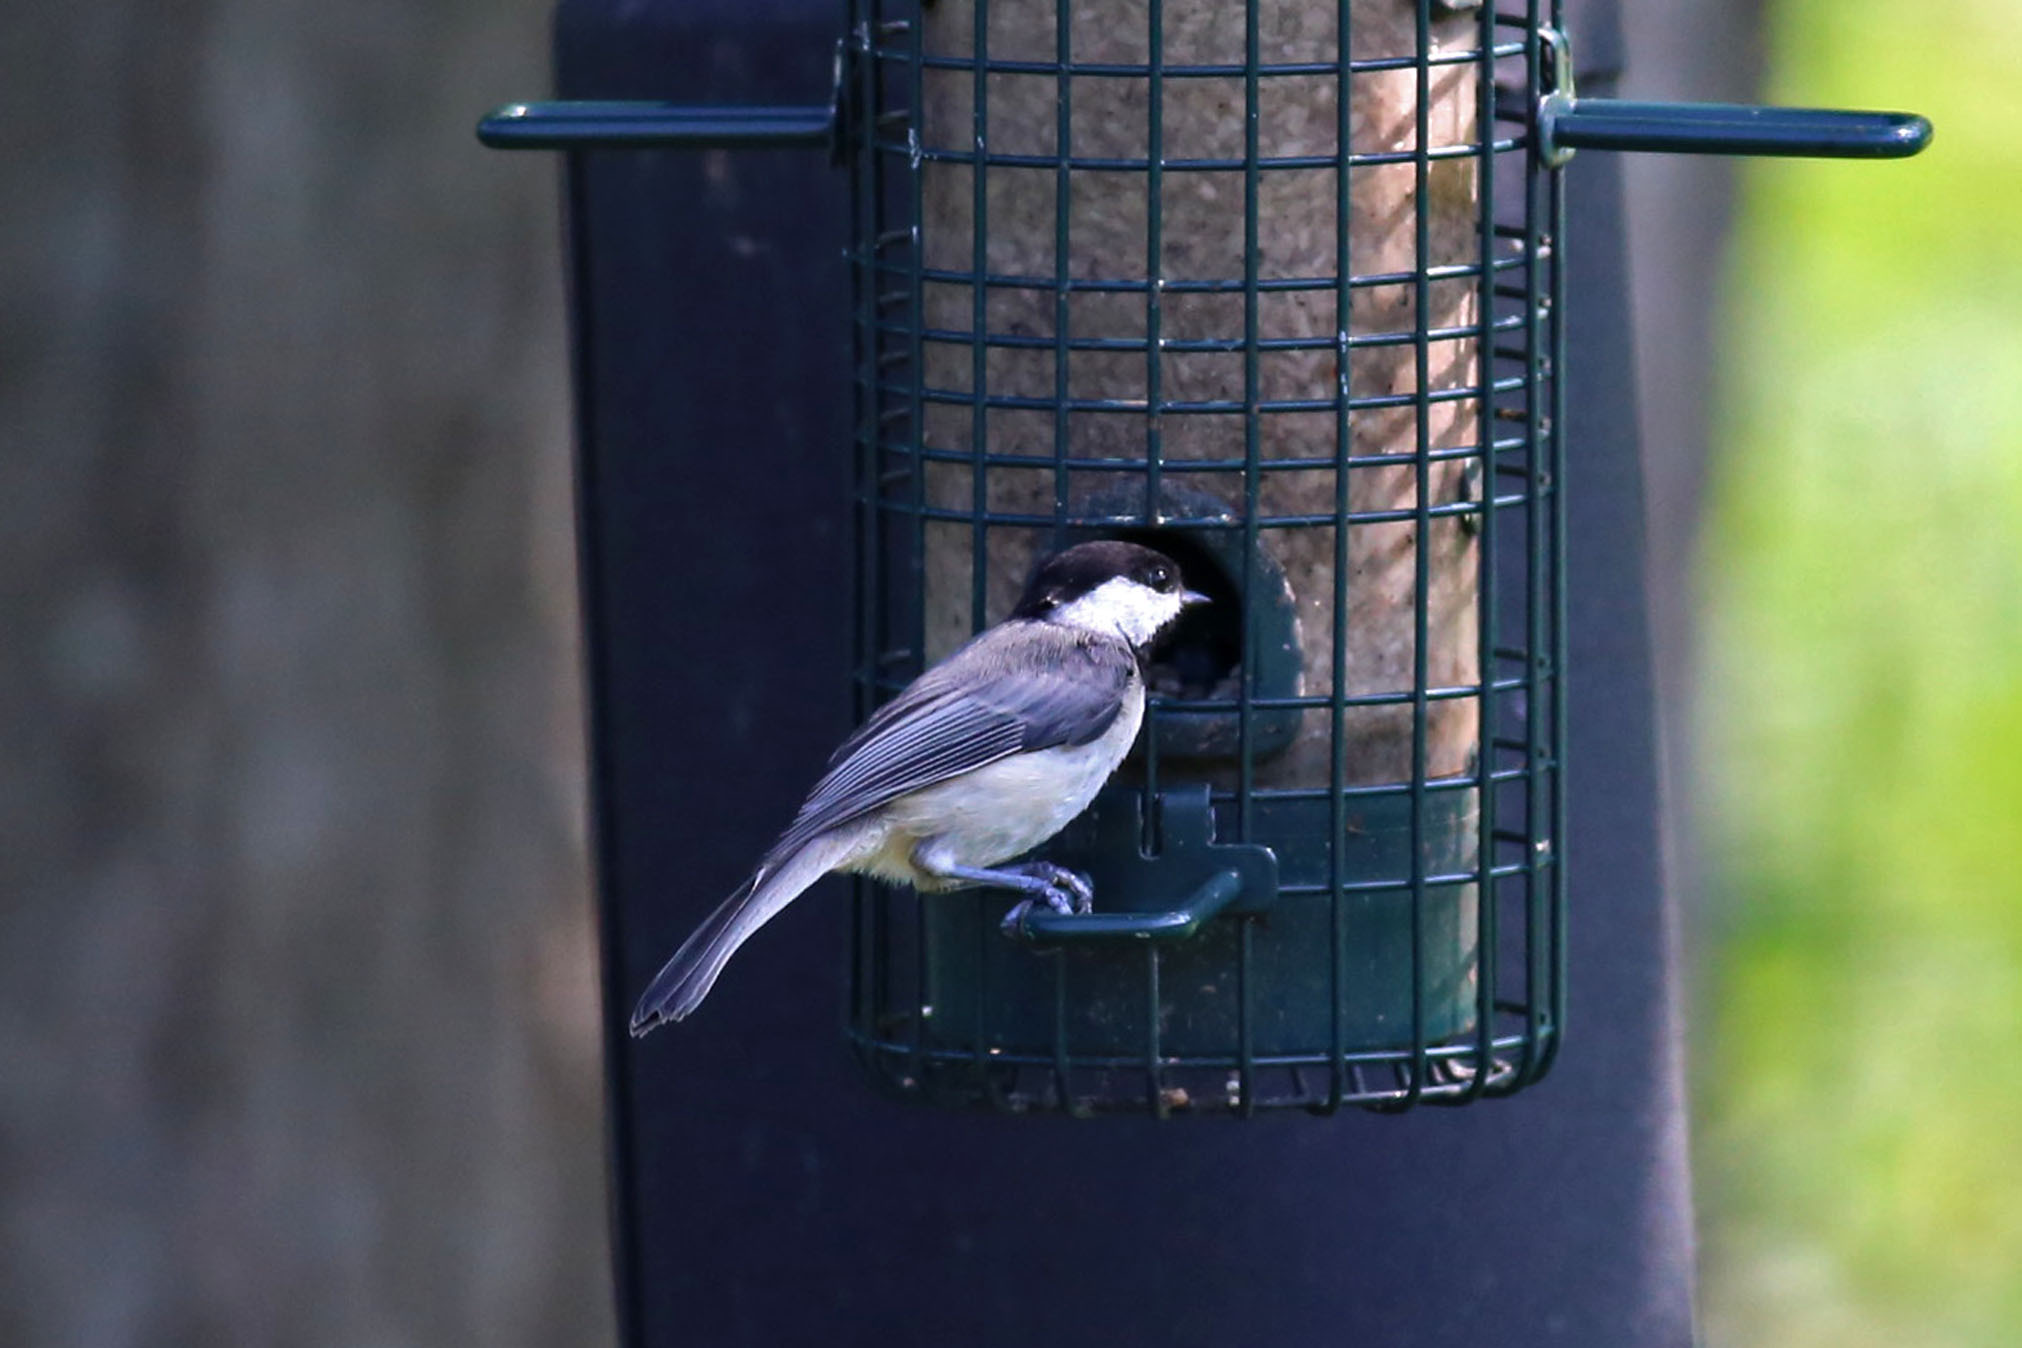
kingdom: Animalia
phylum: Chordata
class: Aves
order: Passeriformes
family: Paridae
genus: Poecile
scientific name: Poecile carolinensis
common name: Carolina chickadee
